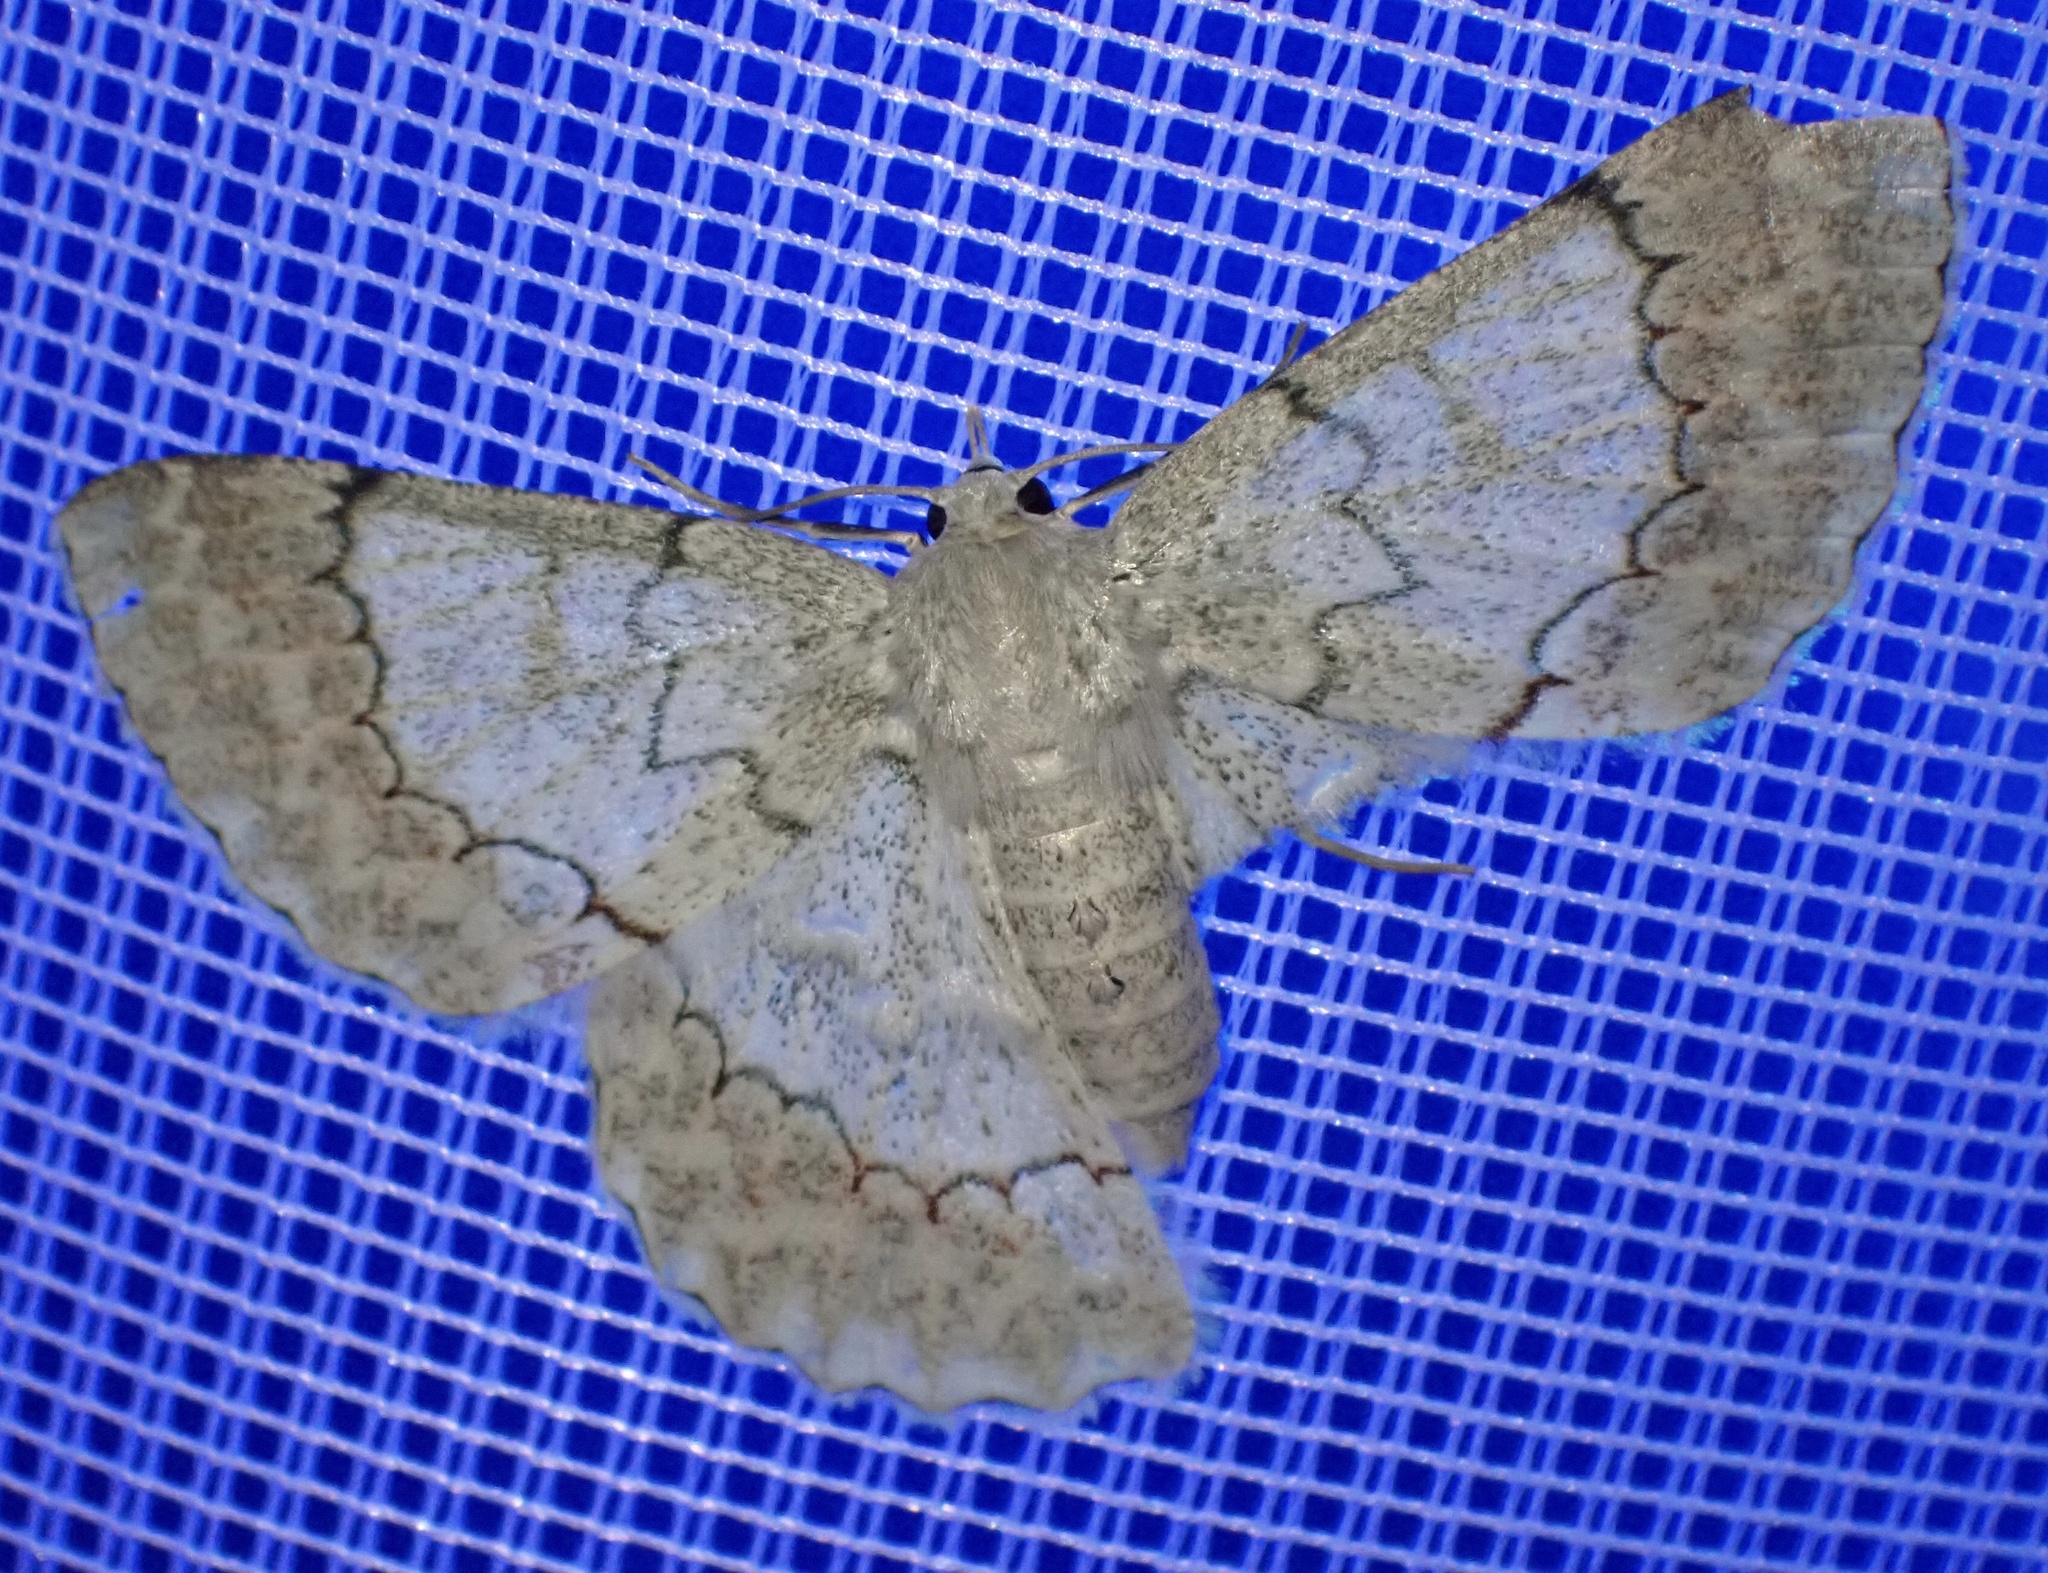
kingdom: Animalia
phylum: Arthropoda
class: Insecta
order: Lepidoptera
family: Geometridae
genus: Pingasa
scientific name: Pingasa chlora
